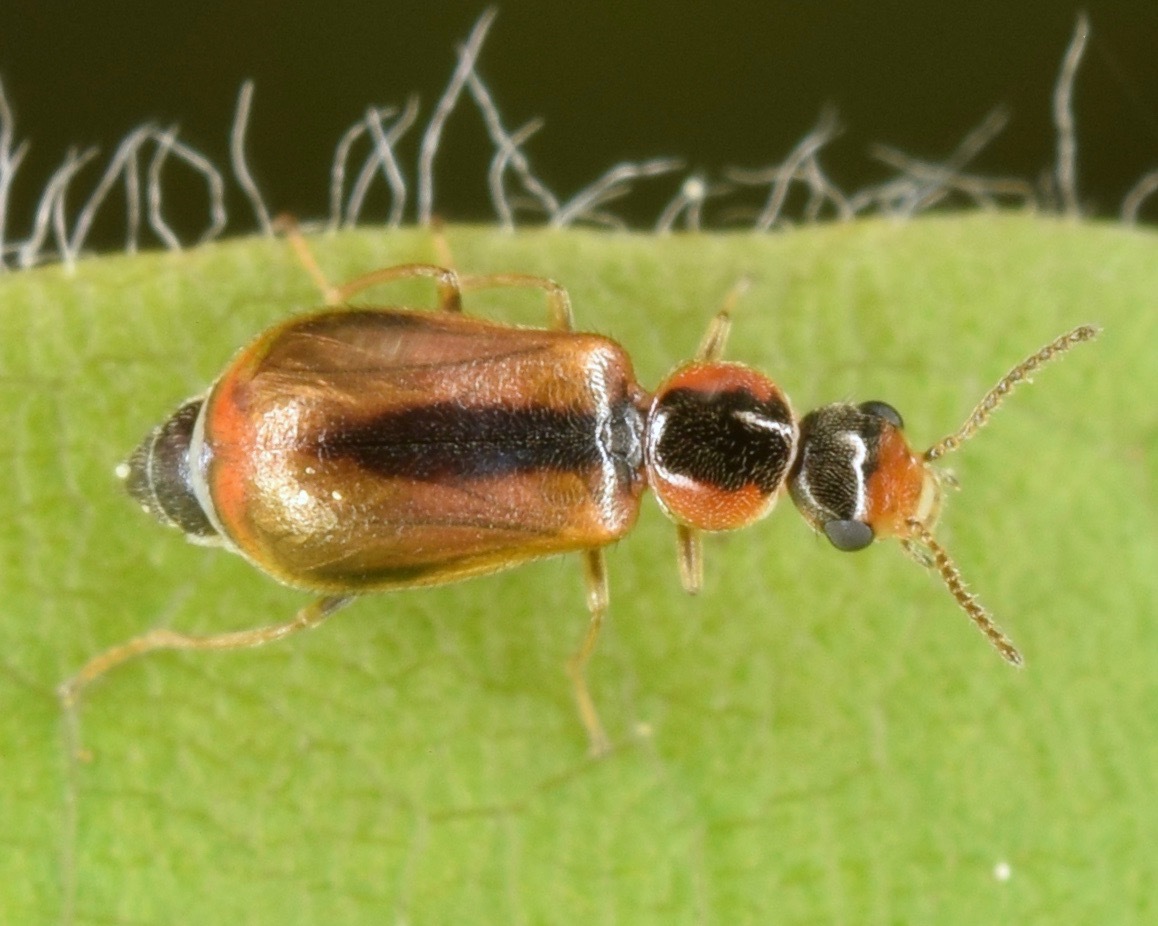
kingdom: Animalia
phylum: Arthropoda
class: Insecta
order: Coleoptera
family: Malachiidae
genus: Attalus
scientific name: Attalus
